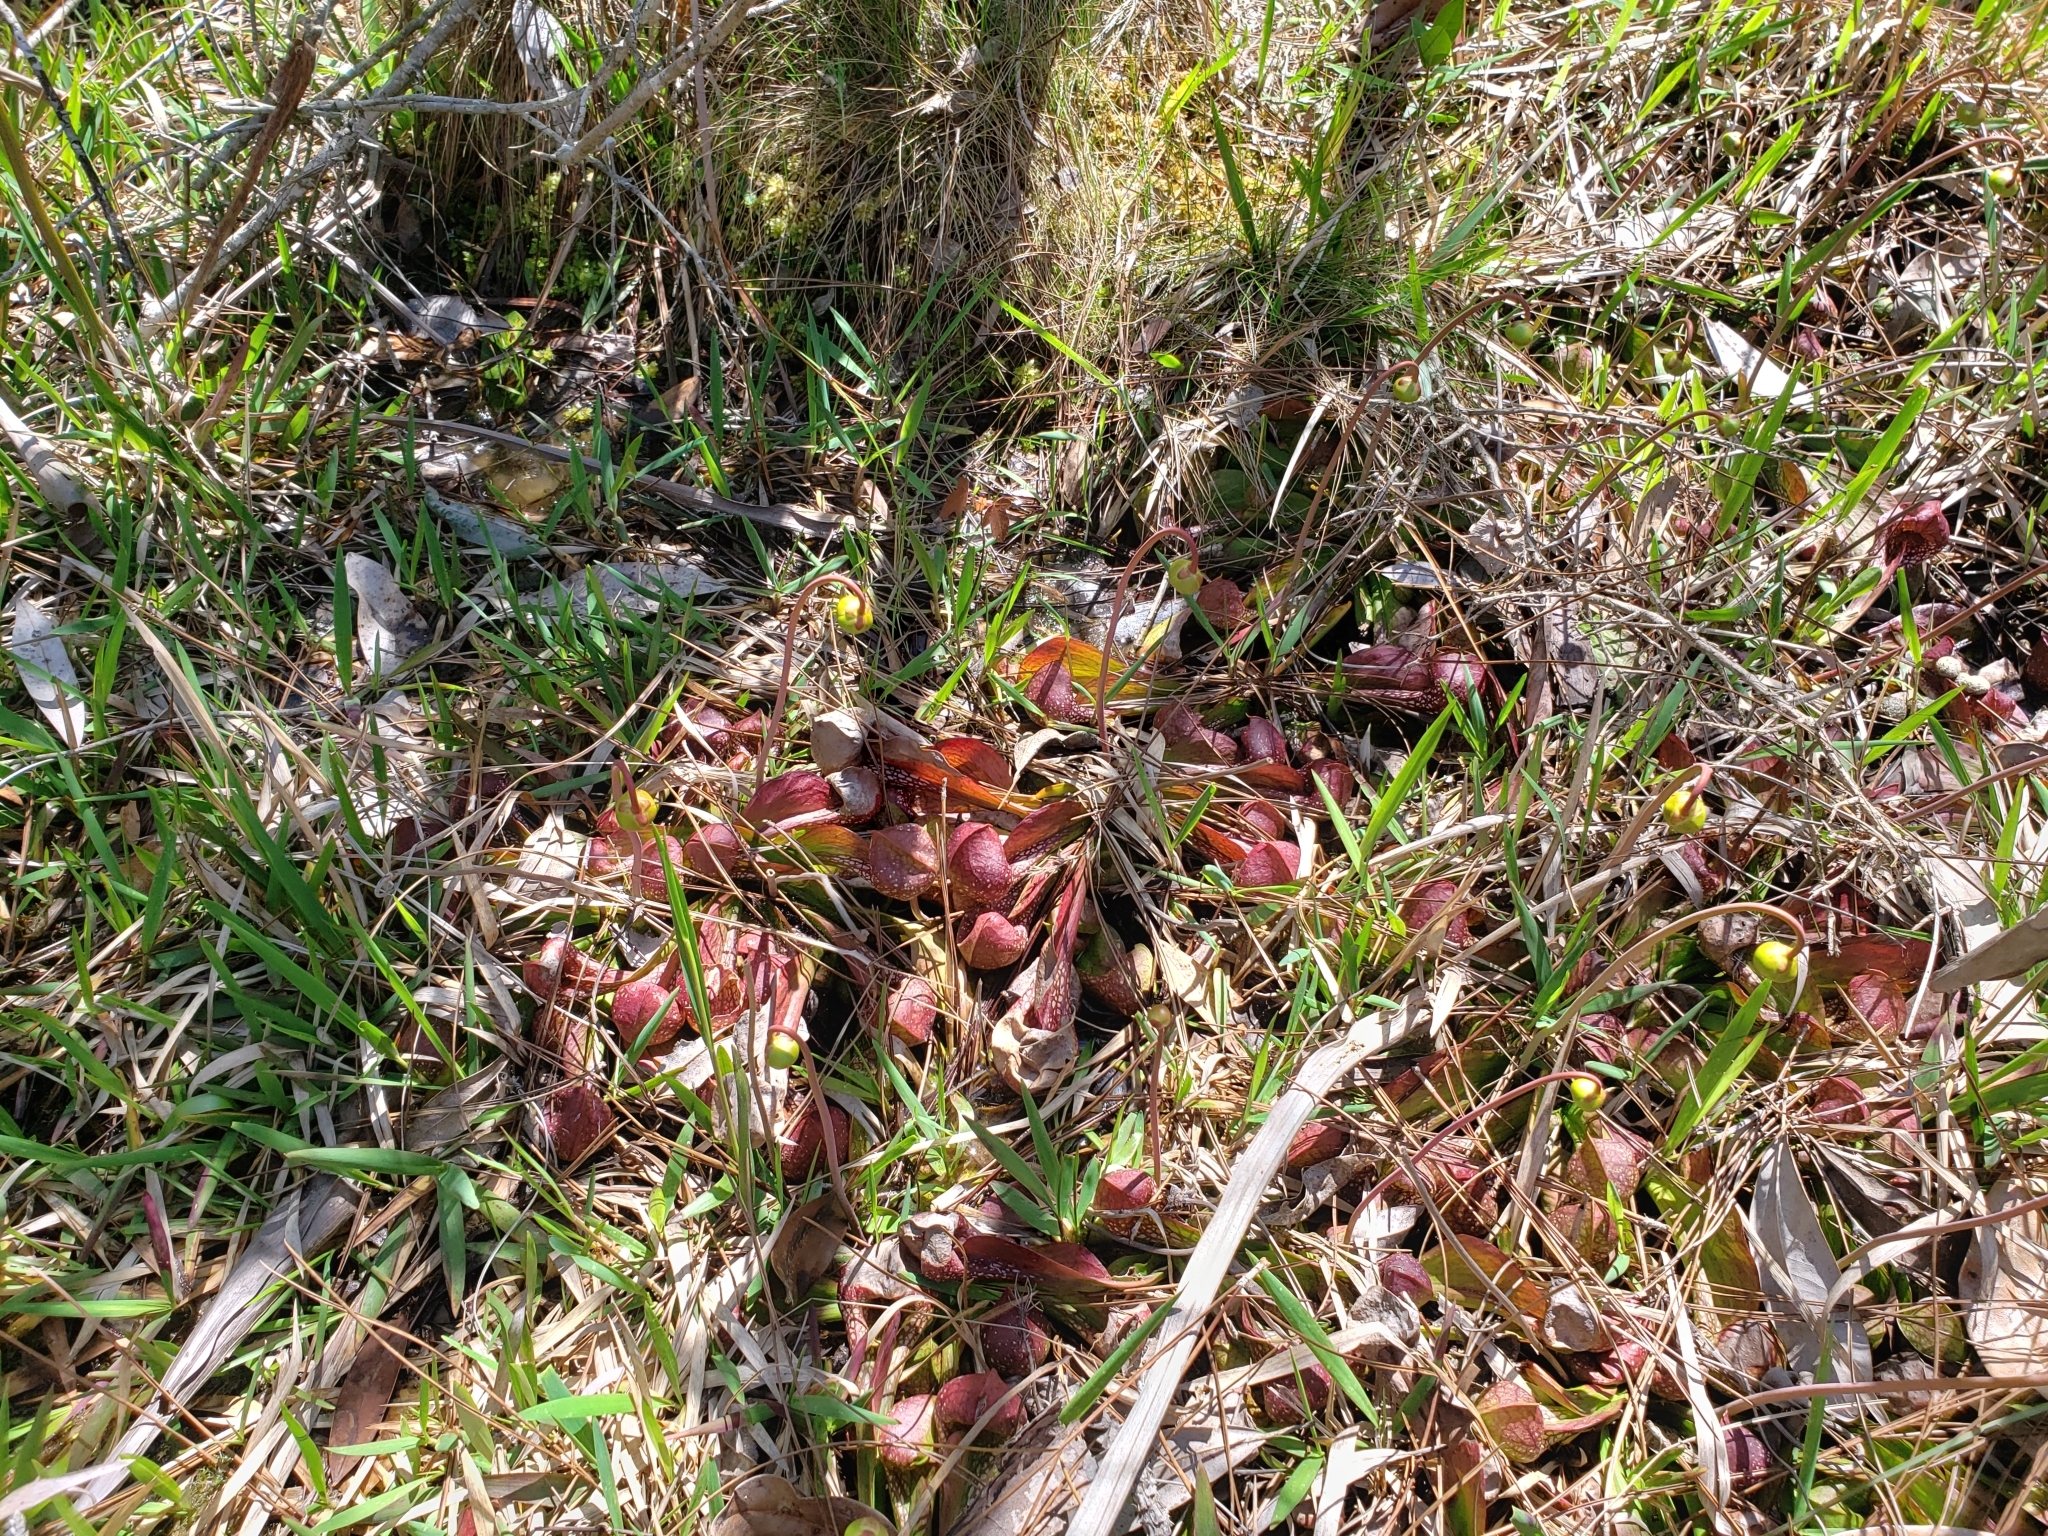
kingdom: Plantae
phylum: Tracheophyta
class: Magnoliopsida
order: Ericales
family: Sarraceniaceae
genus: Sarracenia
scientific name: Sarracenia psittacina
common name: Parrot pitcherplant
